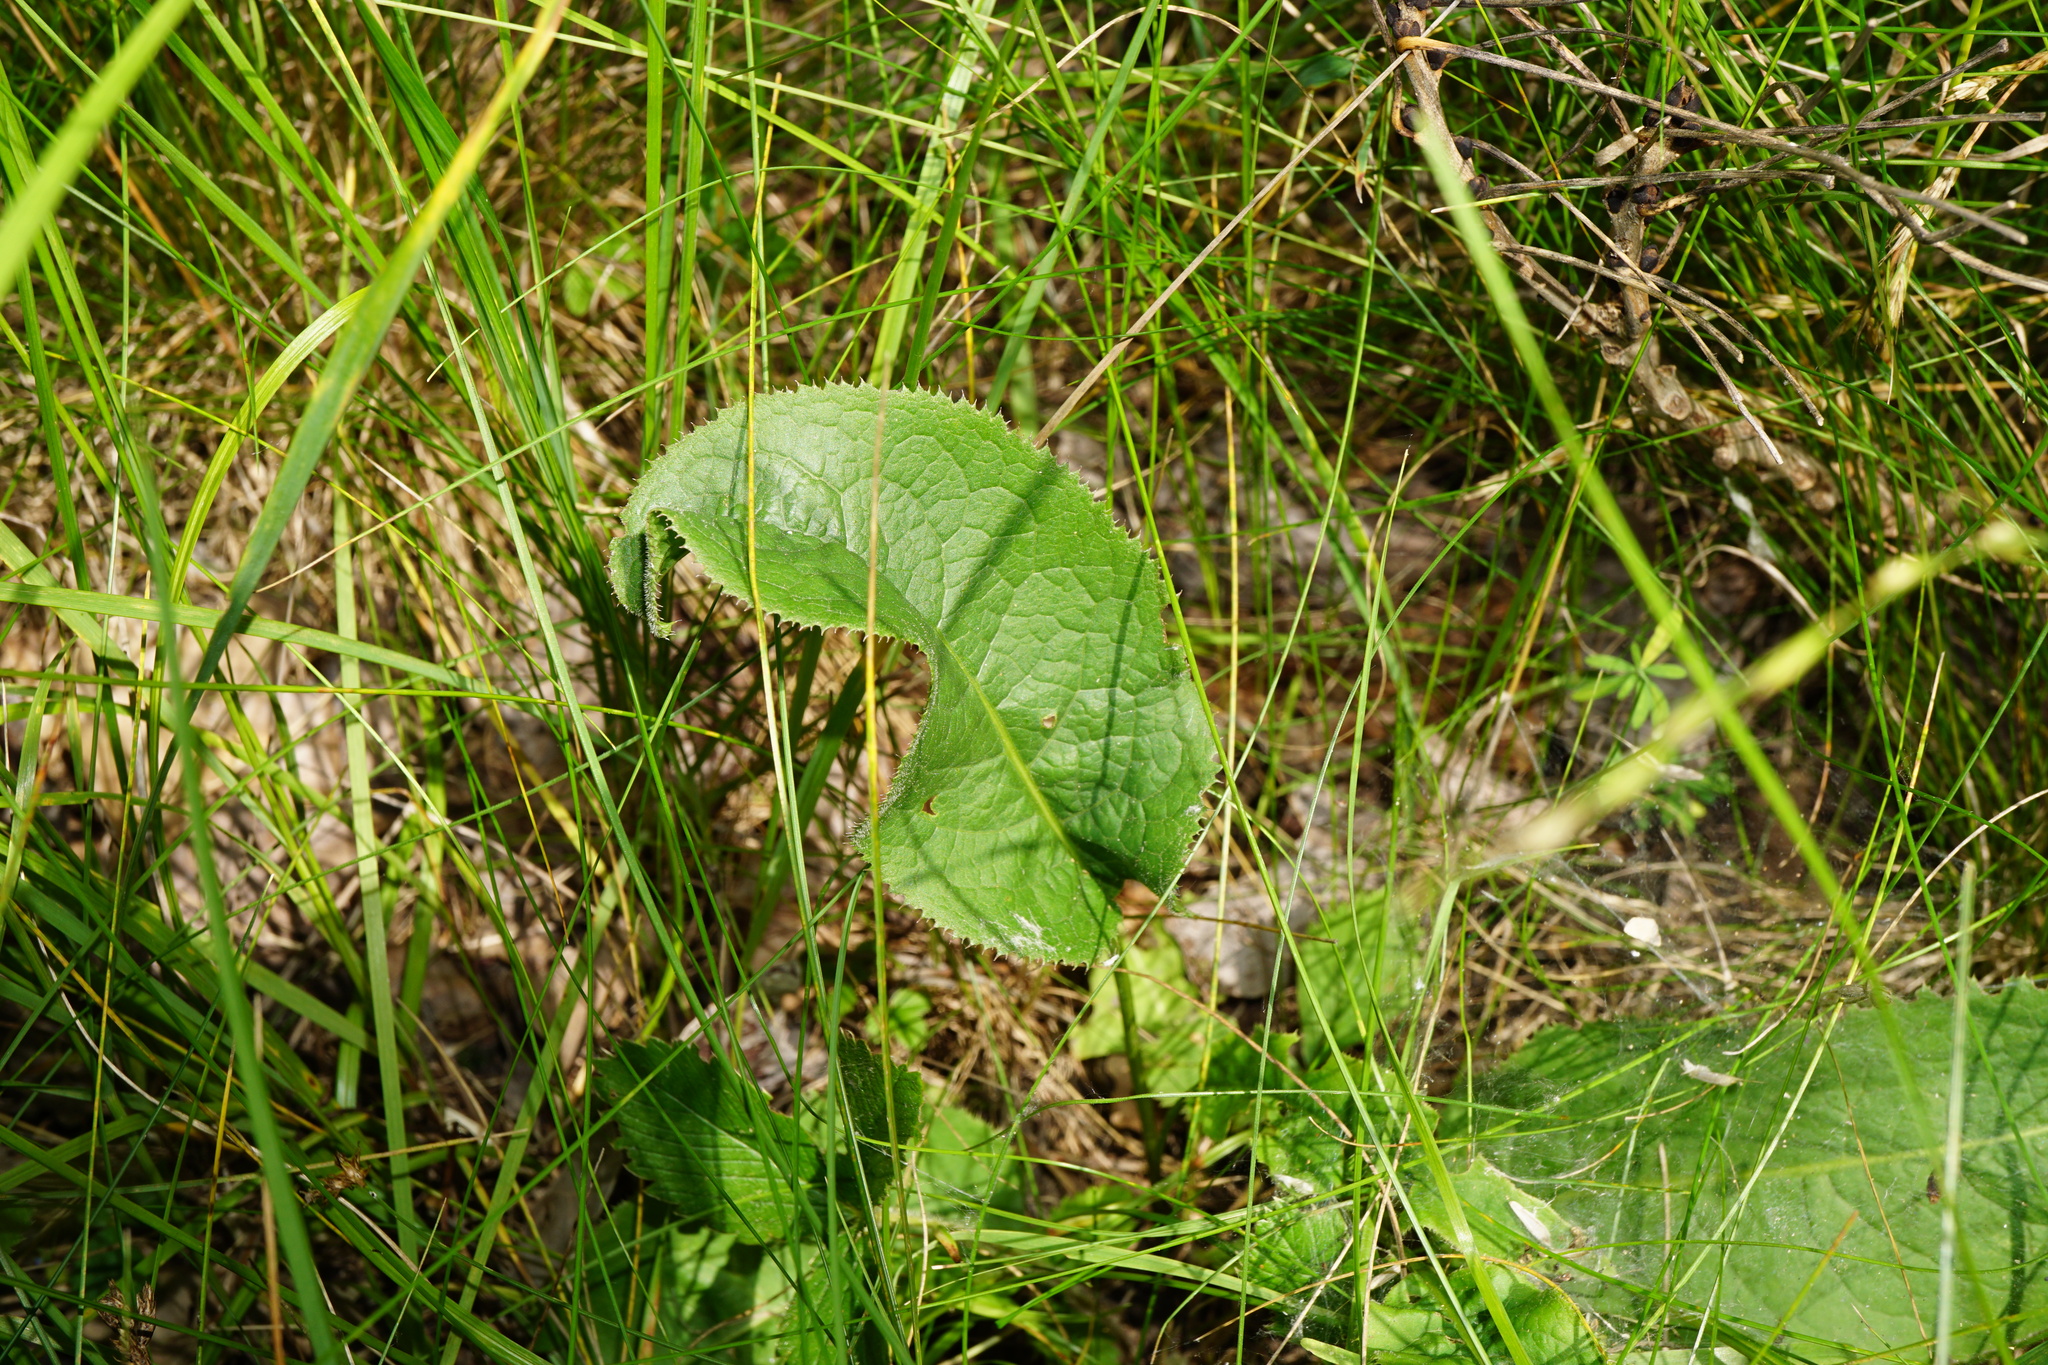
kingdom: Plantae
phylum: Tracheophyta
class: Magnoliopsida
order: Asterales
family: Asteraceae
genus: Serratula
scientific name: Serratula tinctoria
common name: Saw-wort
